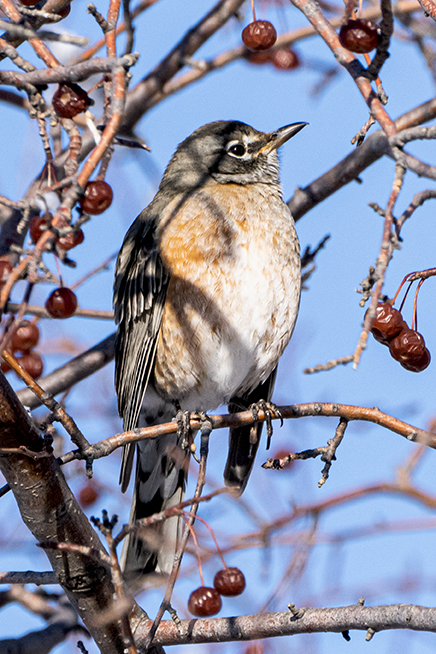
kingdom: Animalia
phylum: Chordata
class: Aves
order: Passeriformes
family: Turdidae
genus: Turdus
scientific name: Turdus migratorius
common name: American robin
